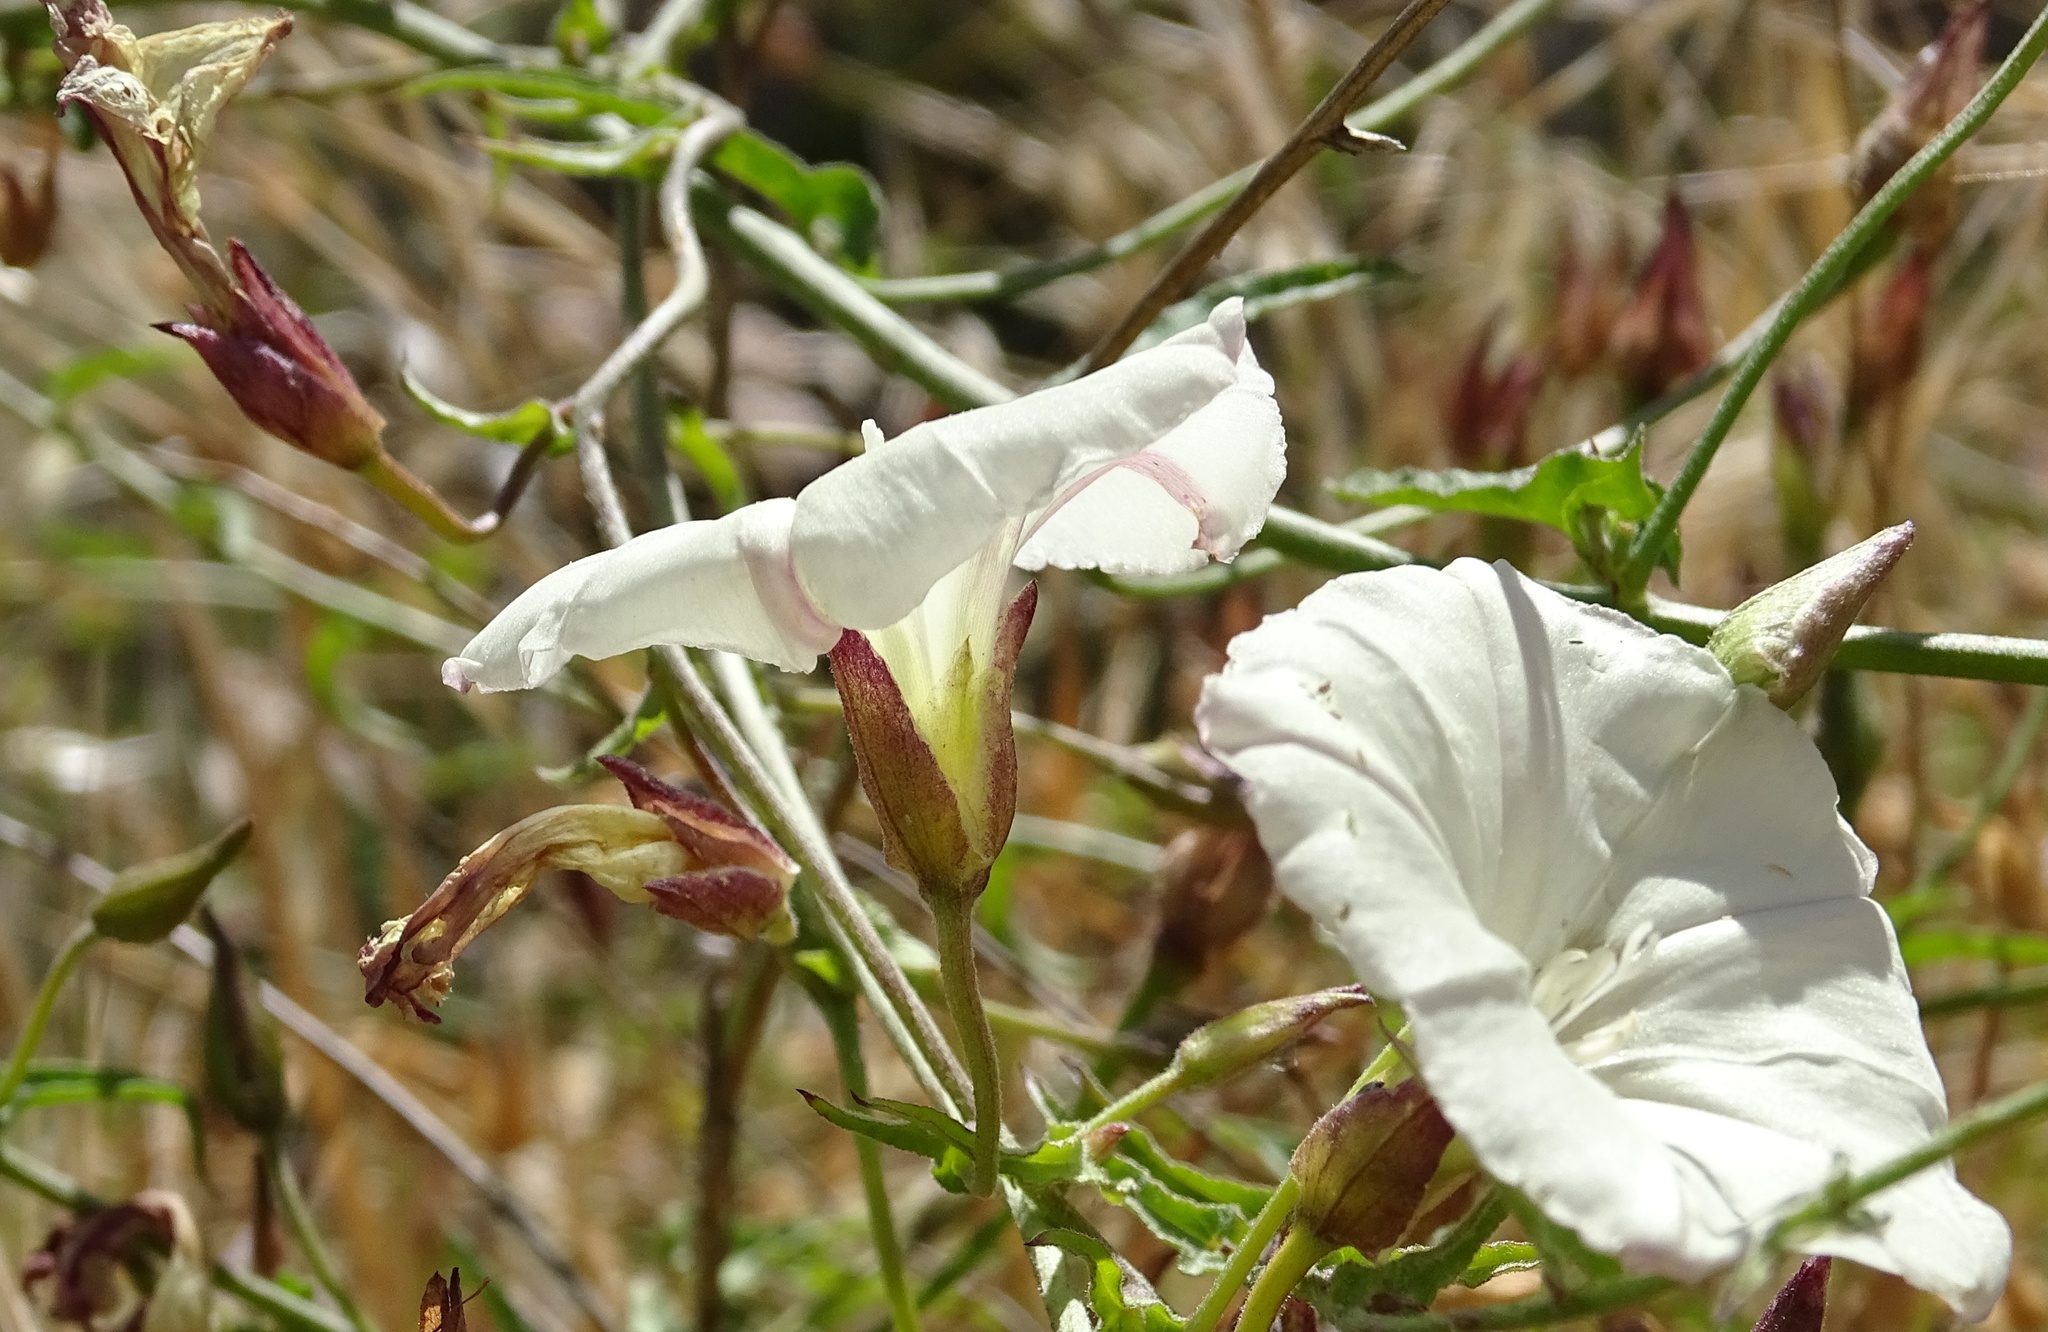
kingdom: Plantae
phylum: Tracheophyta
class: Magnoliopsida
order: Solanales
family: Convolvulaceae
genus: Calystegia
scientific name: Calystegia macrostegia
